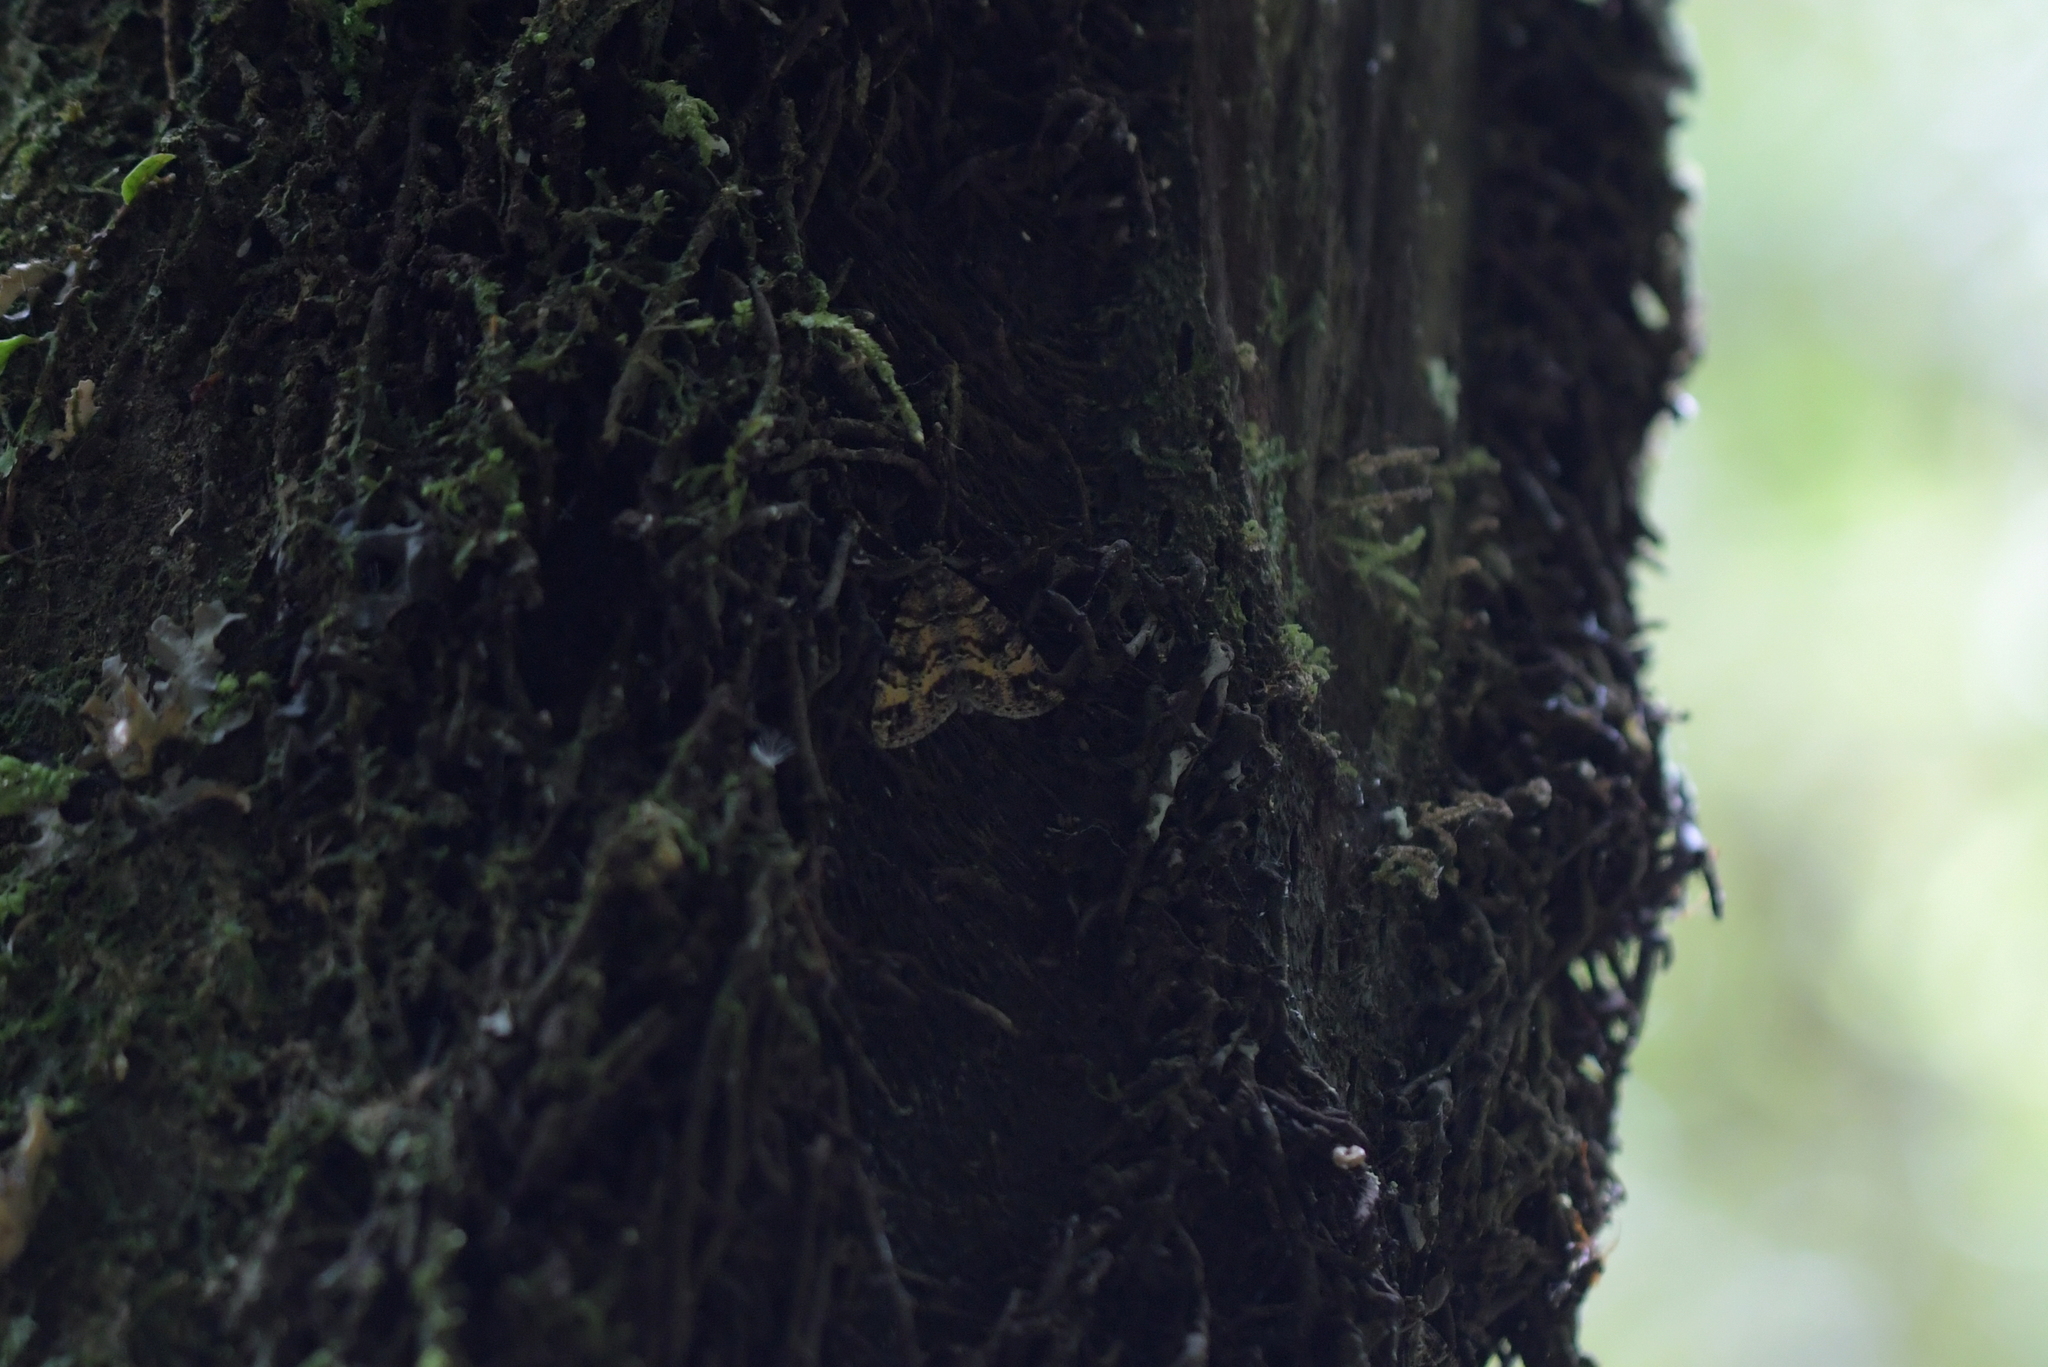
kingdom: Animalia
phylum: Arthropoda
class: Insecta
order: Lepidoptera
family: Geometridae
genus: Pseudocoremia
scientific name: Pseudocoremia productata
